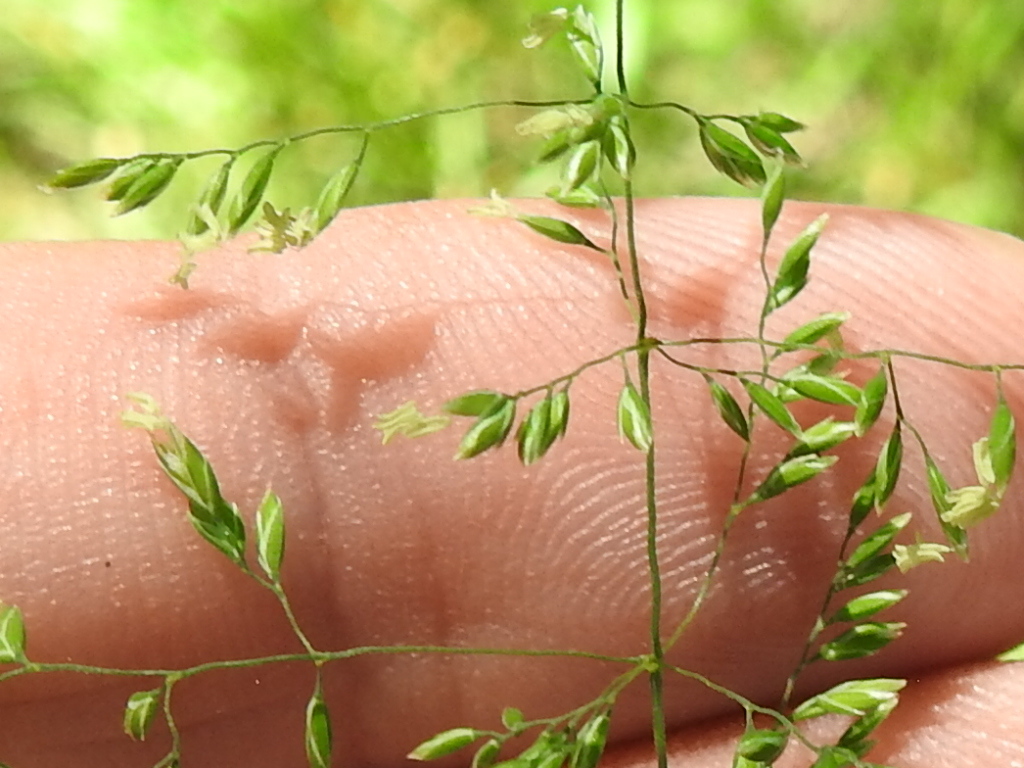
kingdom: Plantae
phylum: Tracheophyta
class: Liliopsida
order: Poales
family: Poaceae
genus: Agrostis
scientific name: Agrostis gigantea
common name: Black bent
